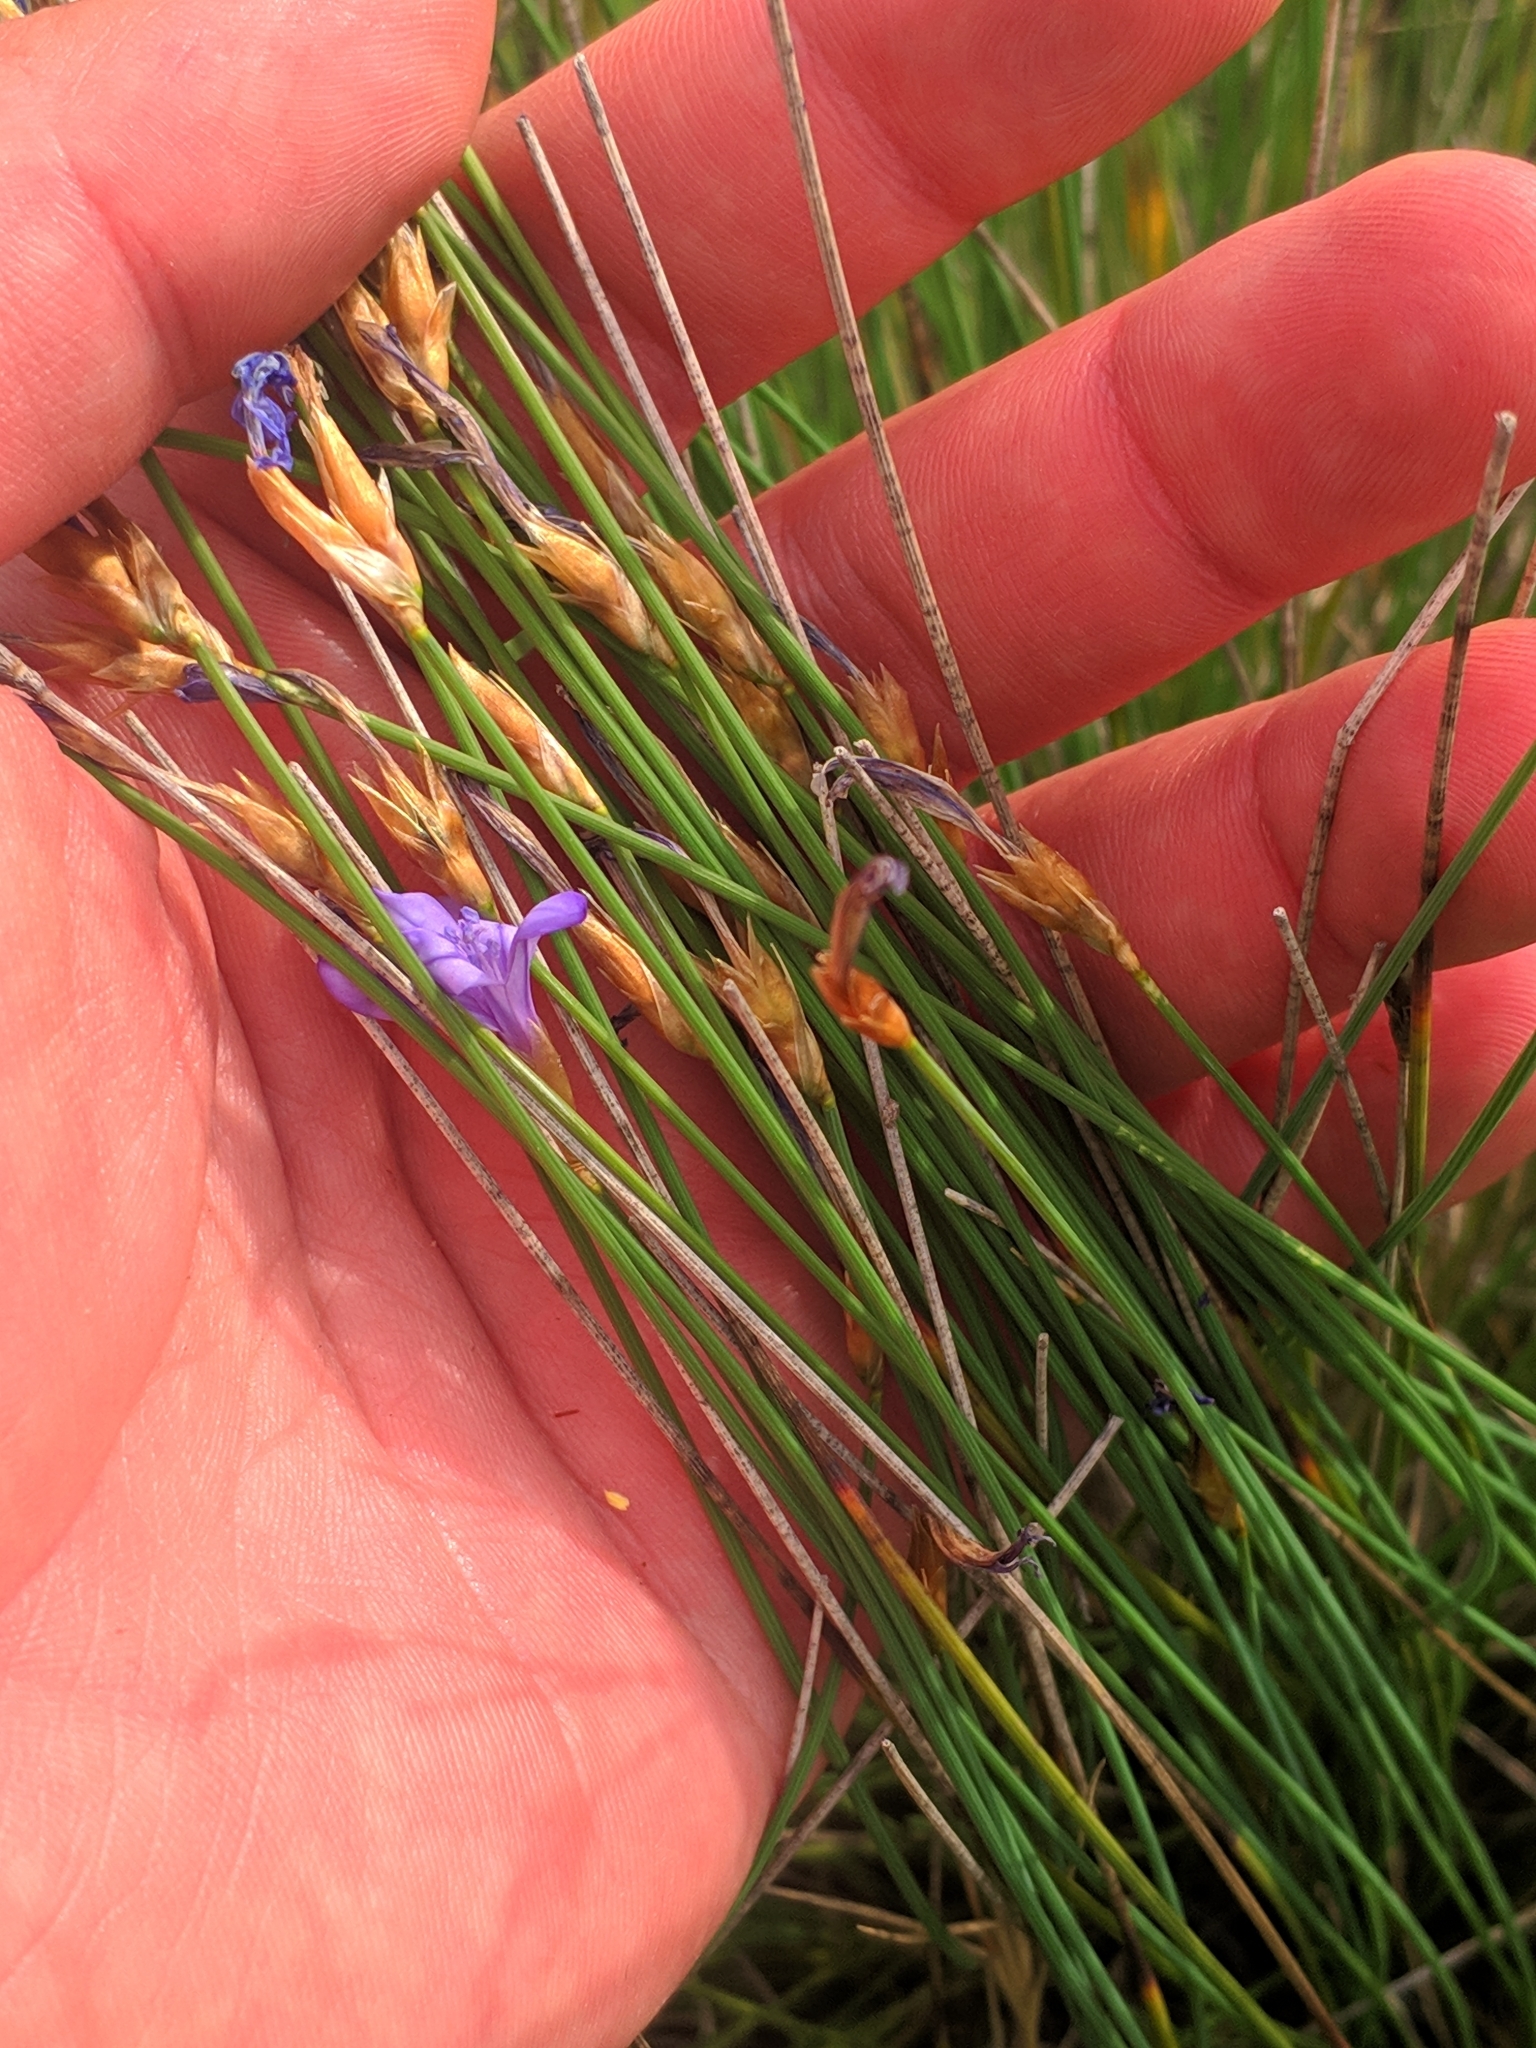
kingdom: Plantae
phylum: Tracheophyta
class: Liliopsida
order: Asparagales
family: Asparagaceae
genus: Aphyllanthes
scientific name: Aphyllanthes monspeliensis
